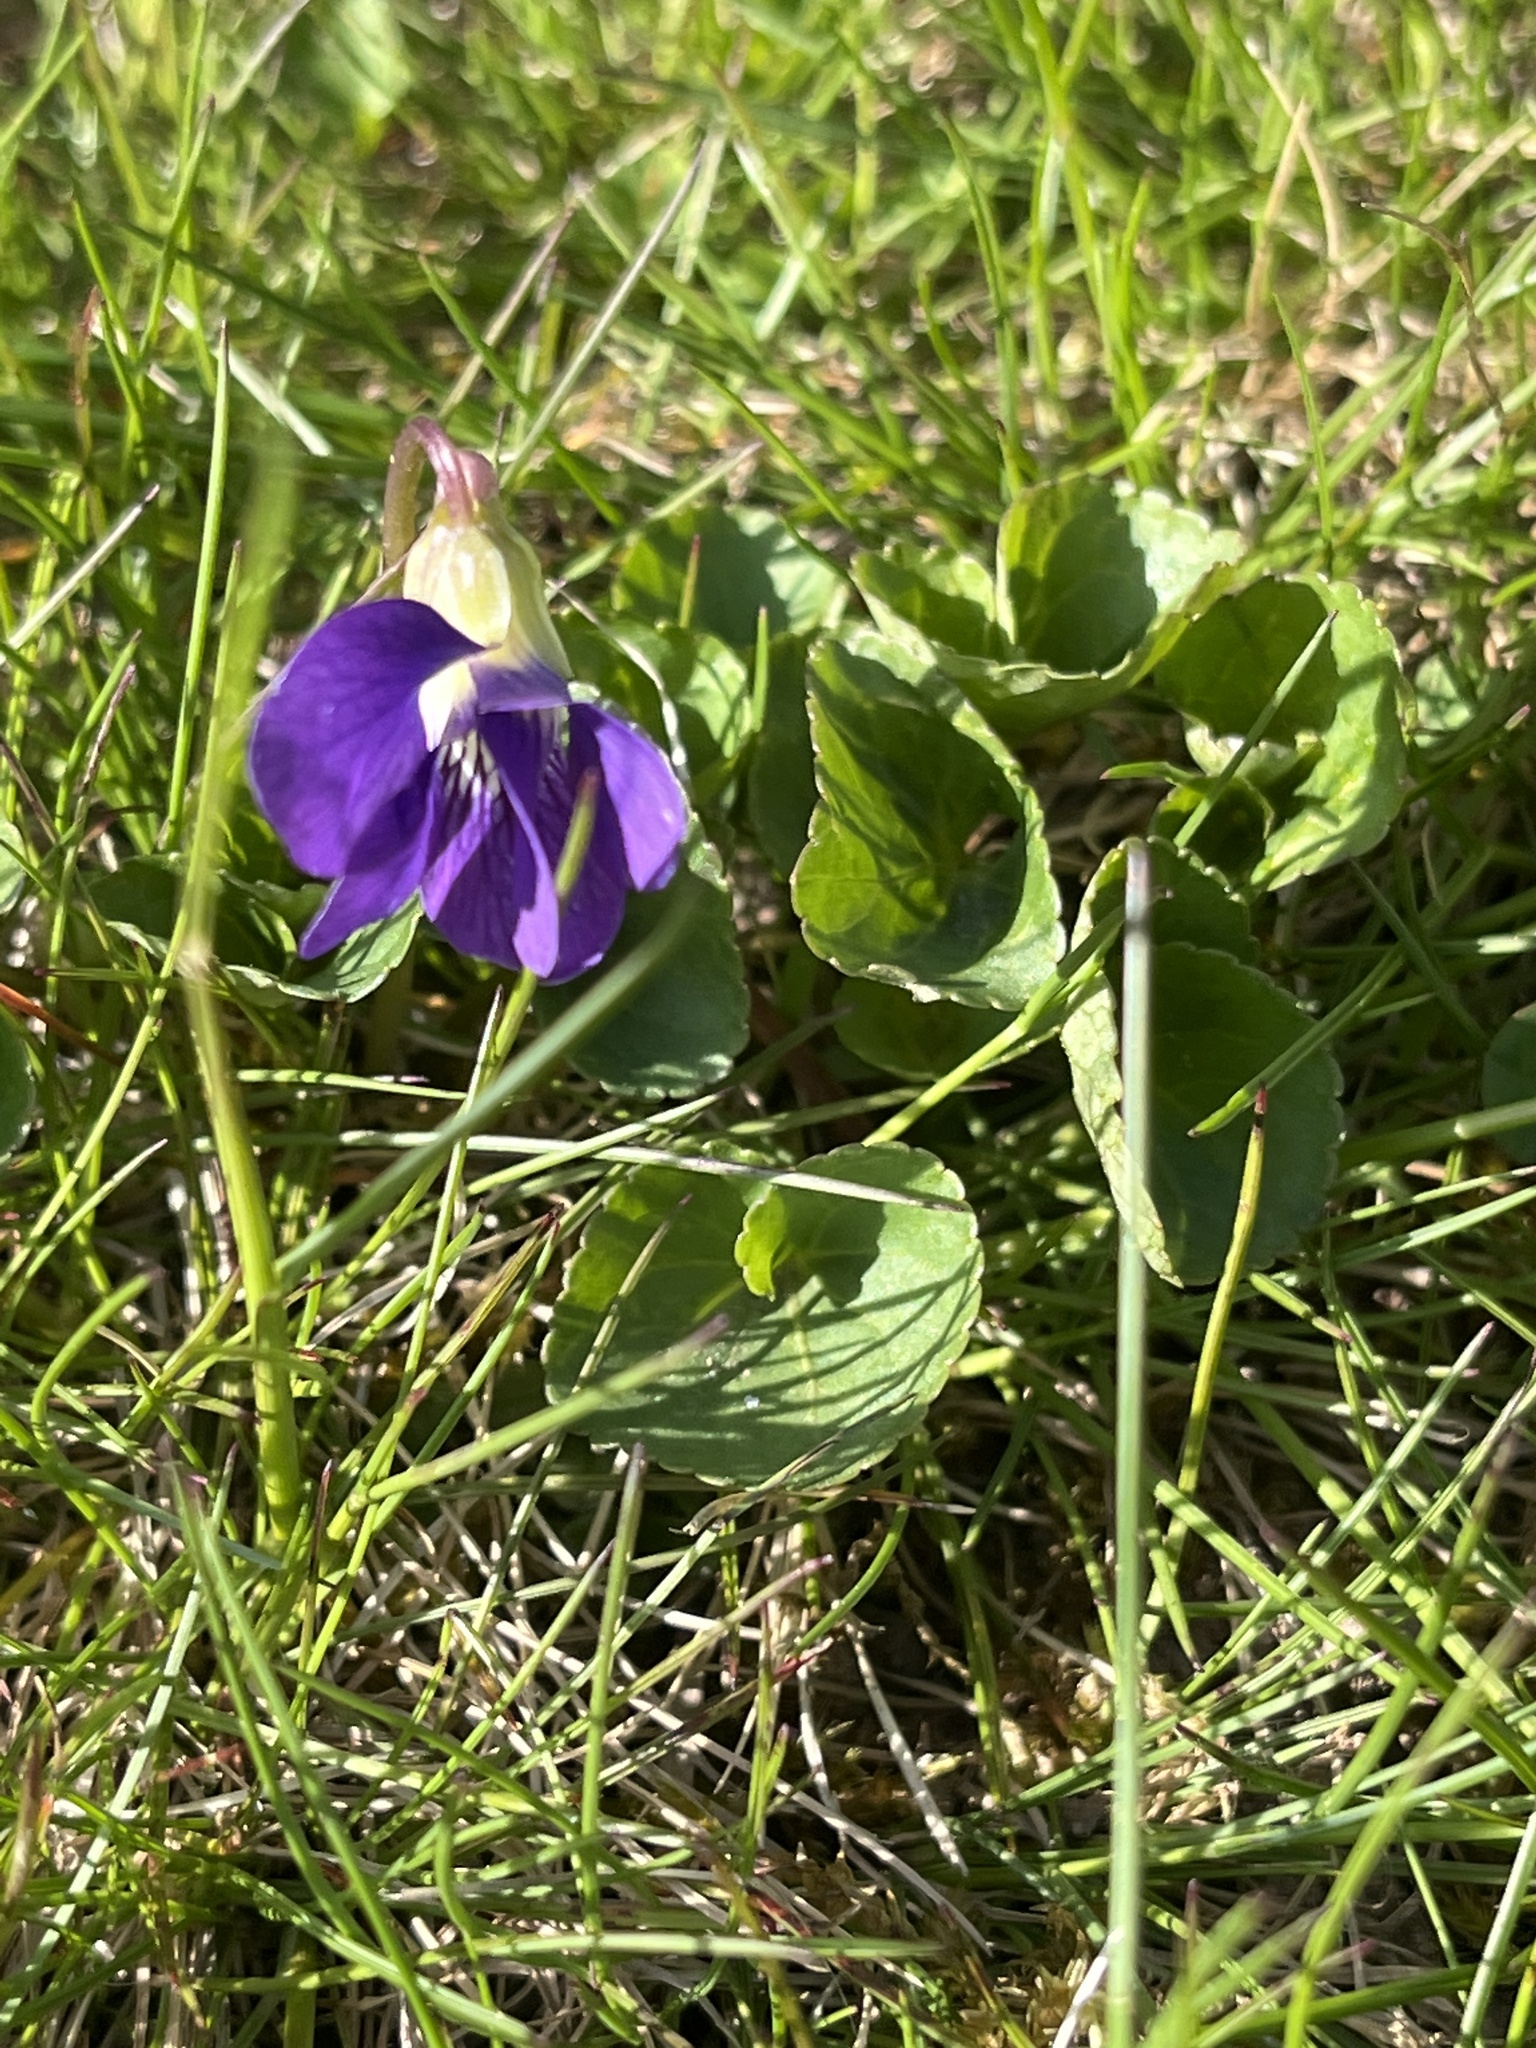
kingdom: Plantae
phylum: Tracheophyta
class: Magnoliopsida
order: Malpighiales
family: Violaceae
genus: Viola
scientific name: Viola sororia
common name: Dooryard violet
